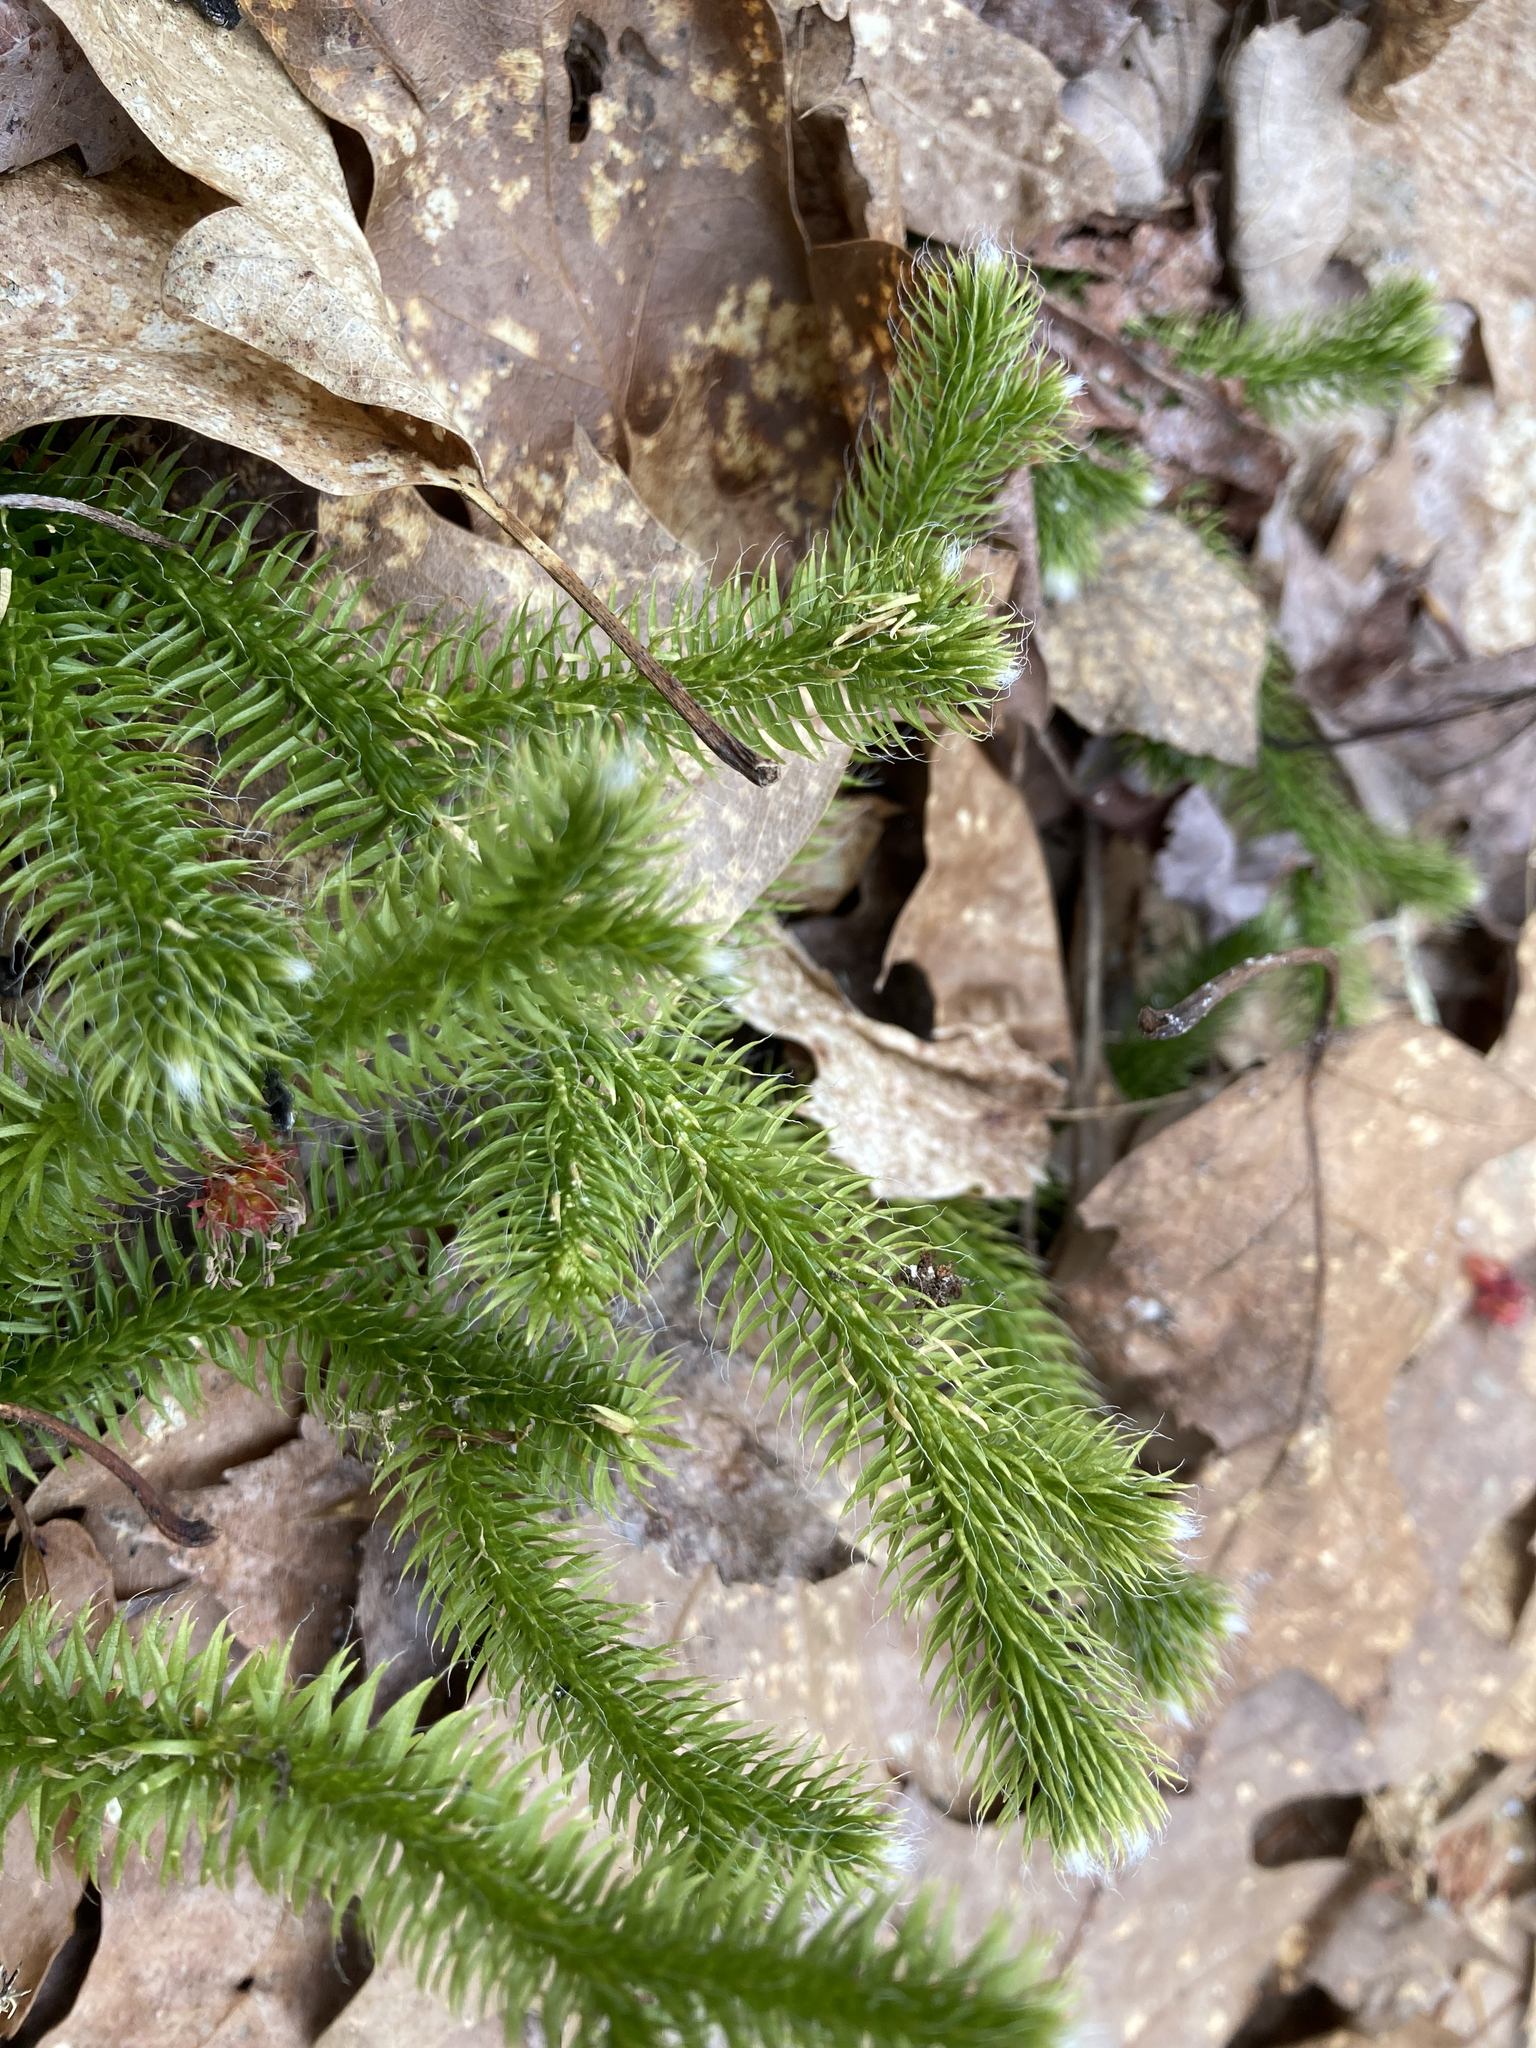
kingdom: Plantae
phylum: Tracheophyta
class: Lycopodiopsida
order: Lycopodiales
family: Lycopodiaceae
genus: Lycopodium
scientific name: Lycopodium clavatum
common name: Stag's-horn clubmoss
